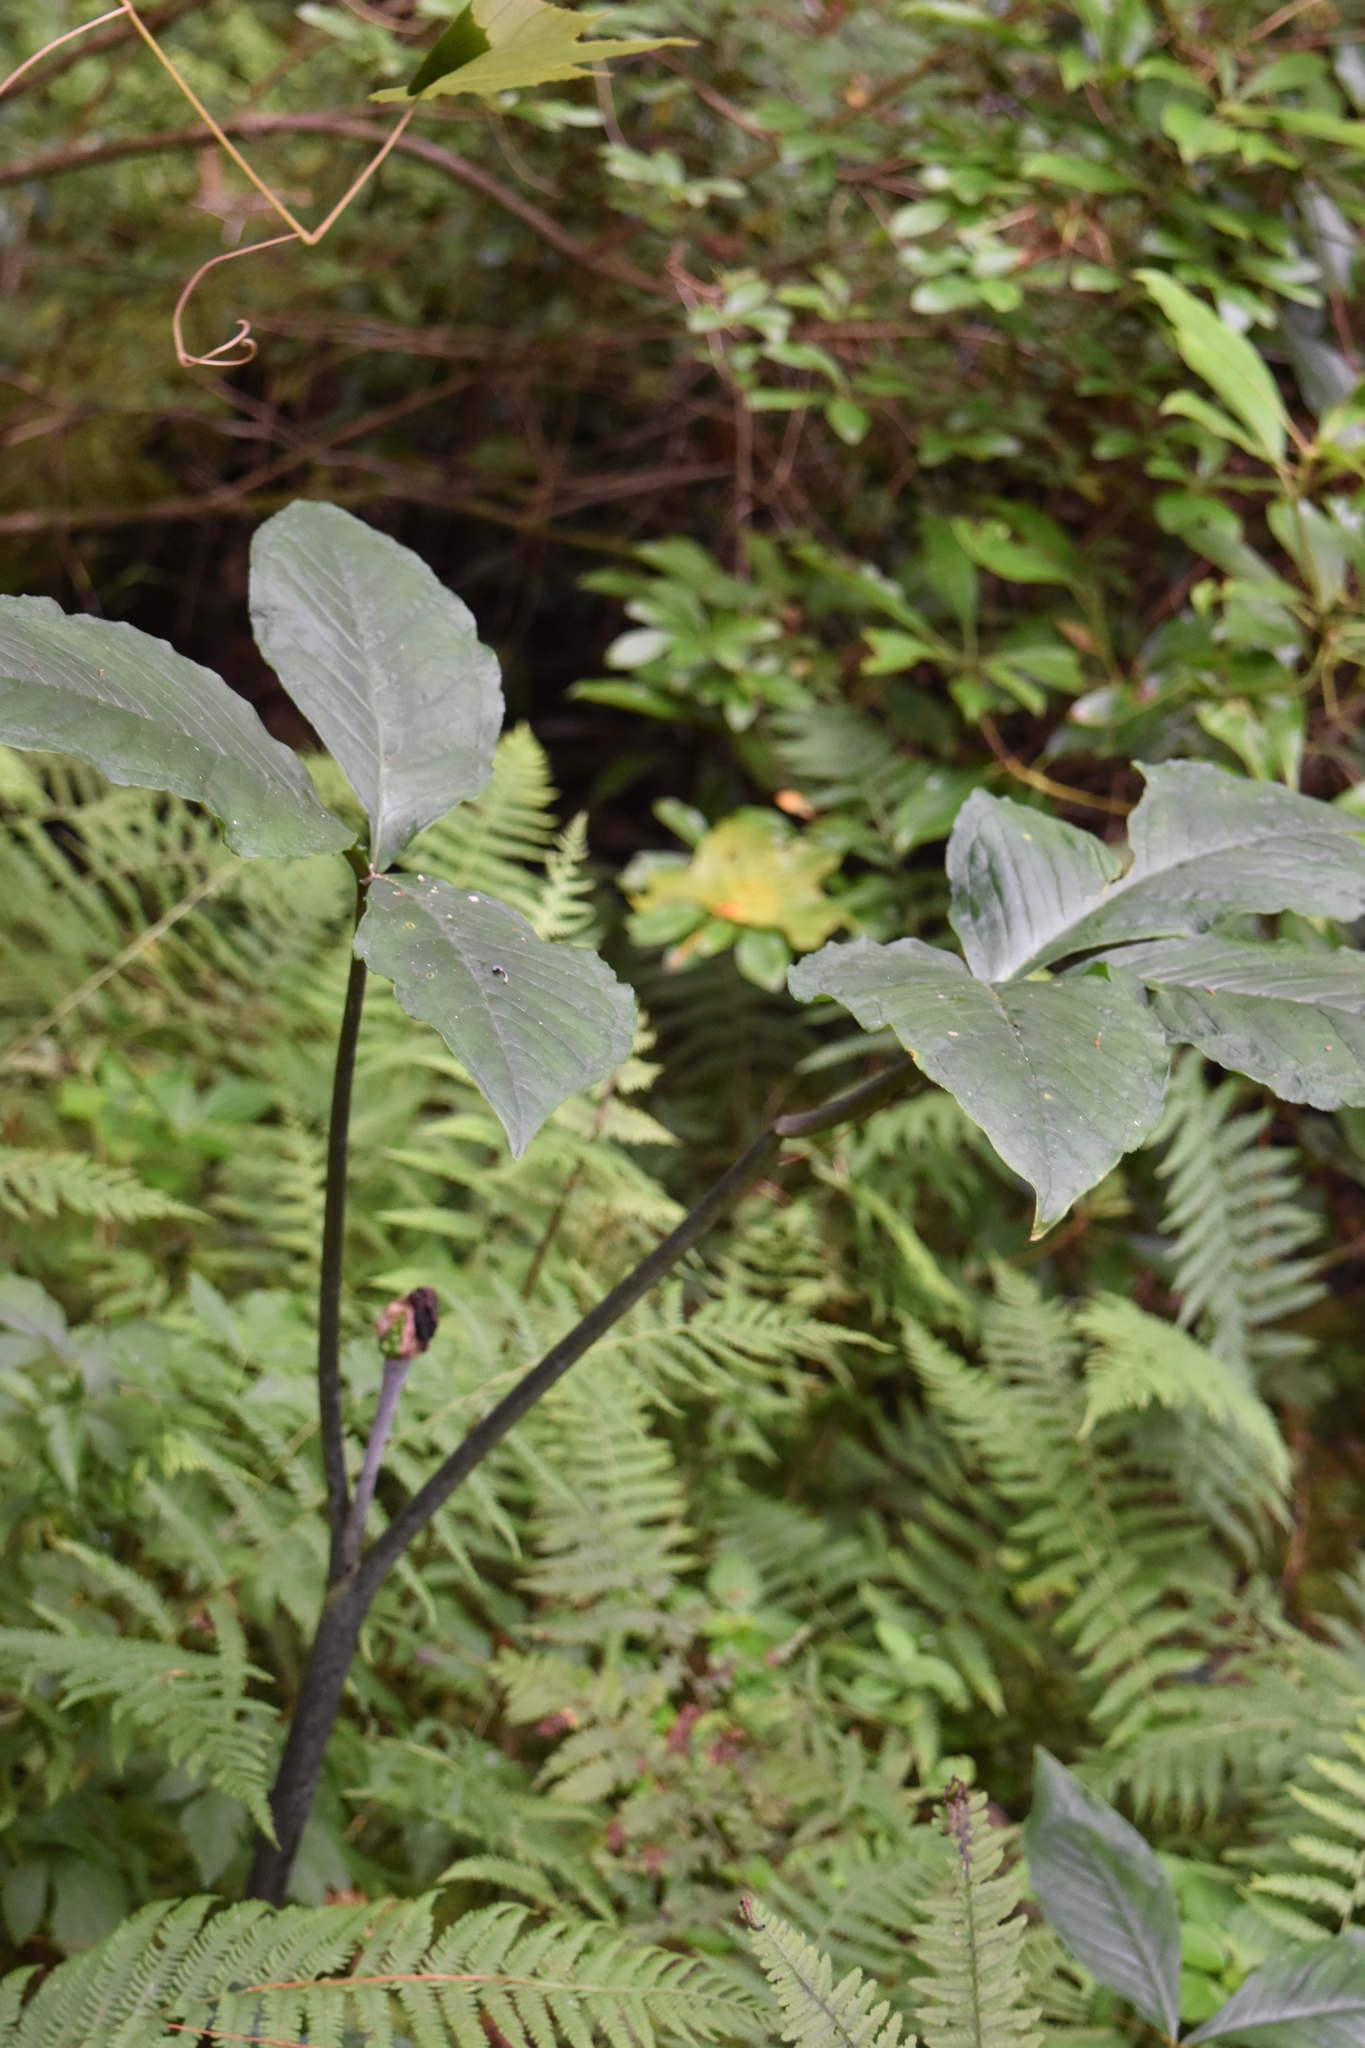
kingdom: Plantae
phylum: Tracheophyta
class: Liliopsida
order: Alismatales
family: Araceae
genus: Arisaema
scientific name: Arisaema triphyllum
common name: Jack-in-the-pulpit
